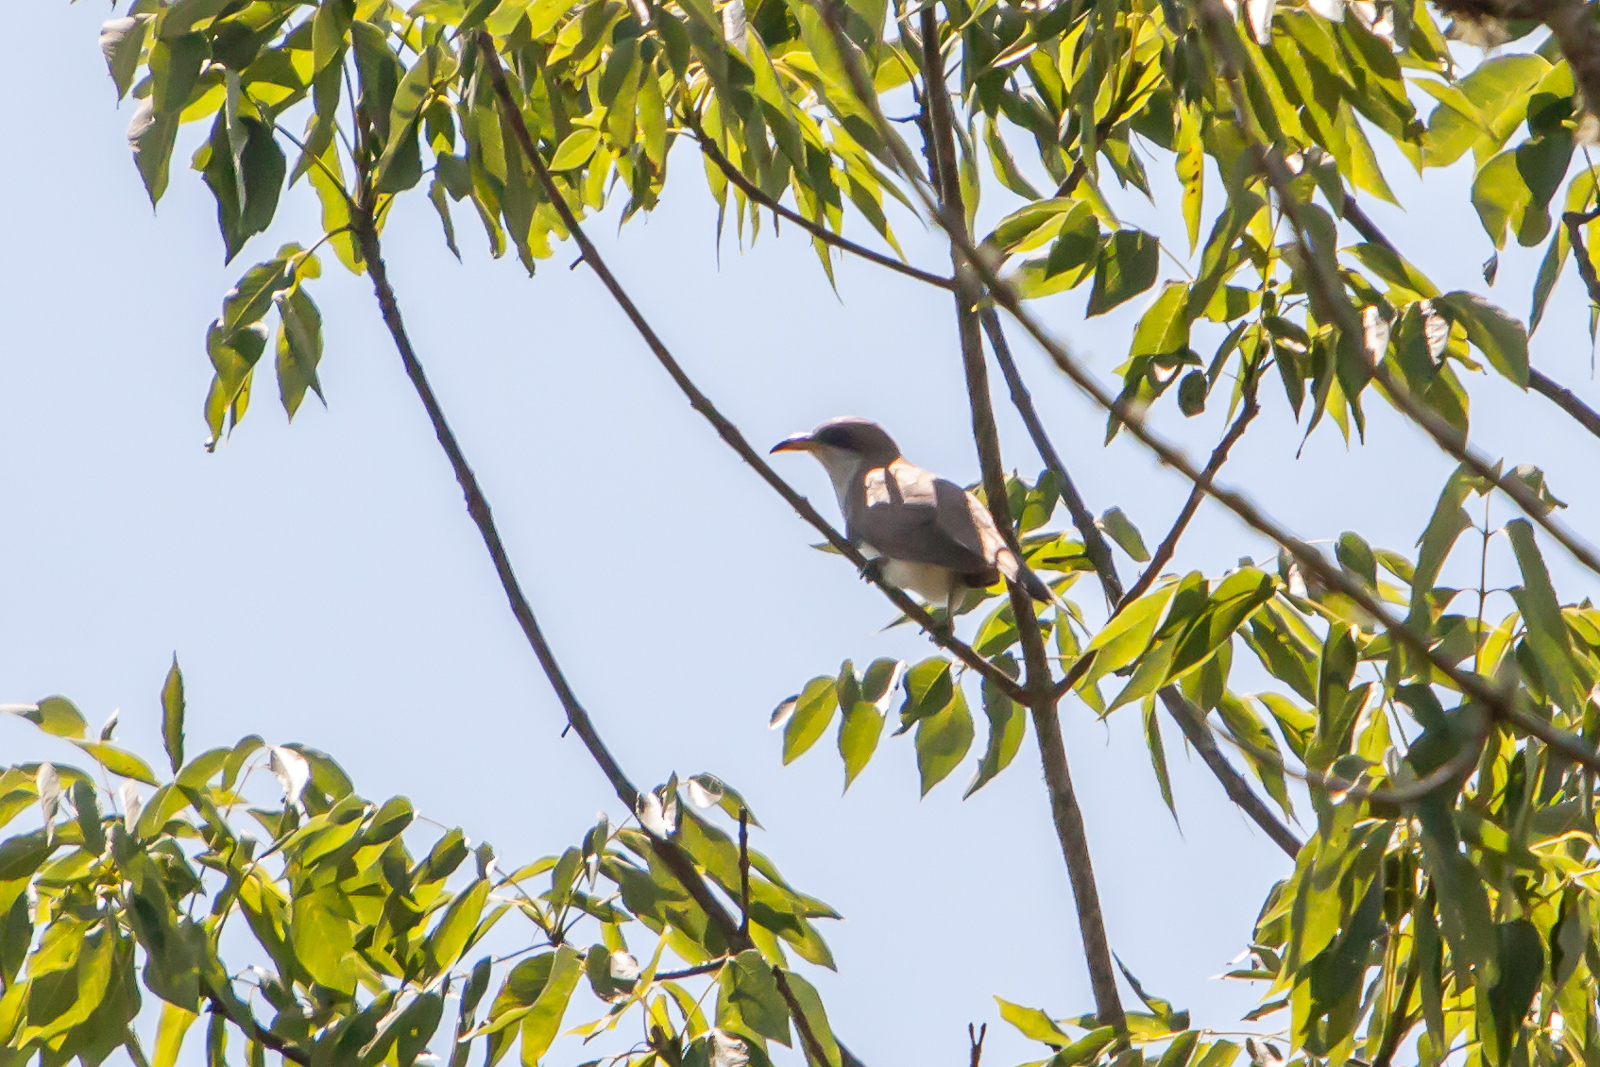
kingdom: Animalia
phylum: Chordata
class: Aves
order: Cuculiformes
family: Cuculidae
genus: Coccyzus
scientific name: Coccyzus americanus
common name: Yellow-billed cuckoo
